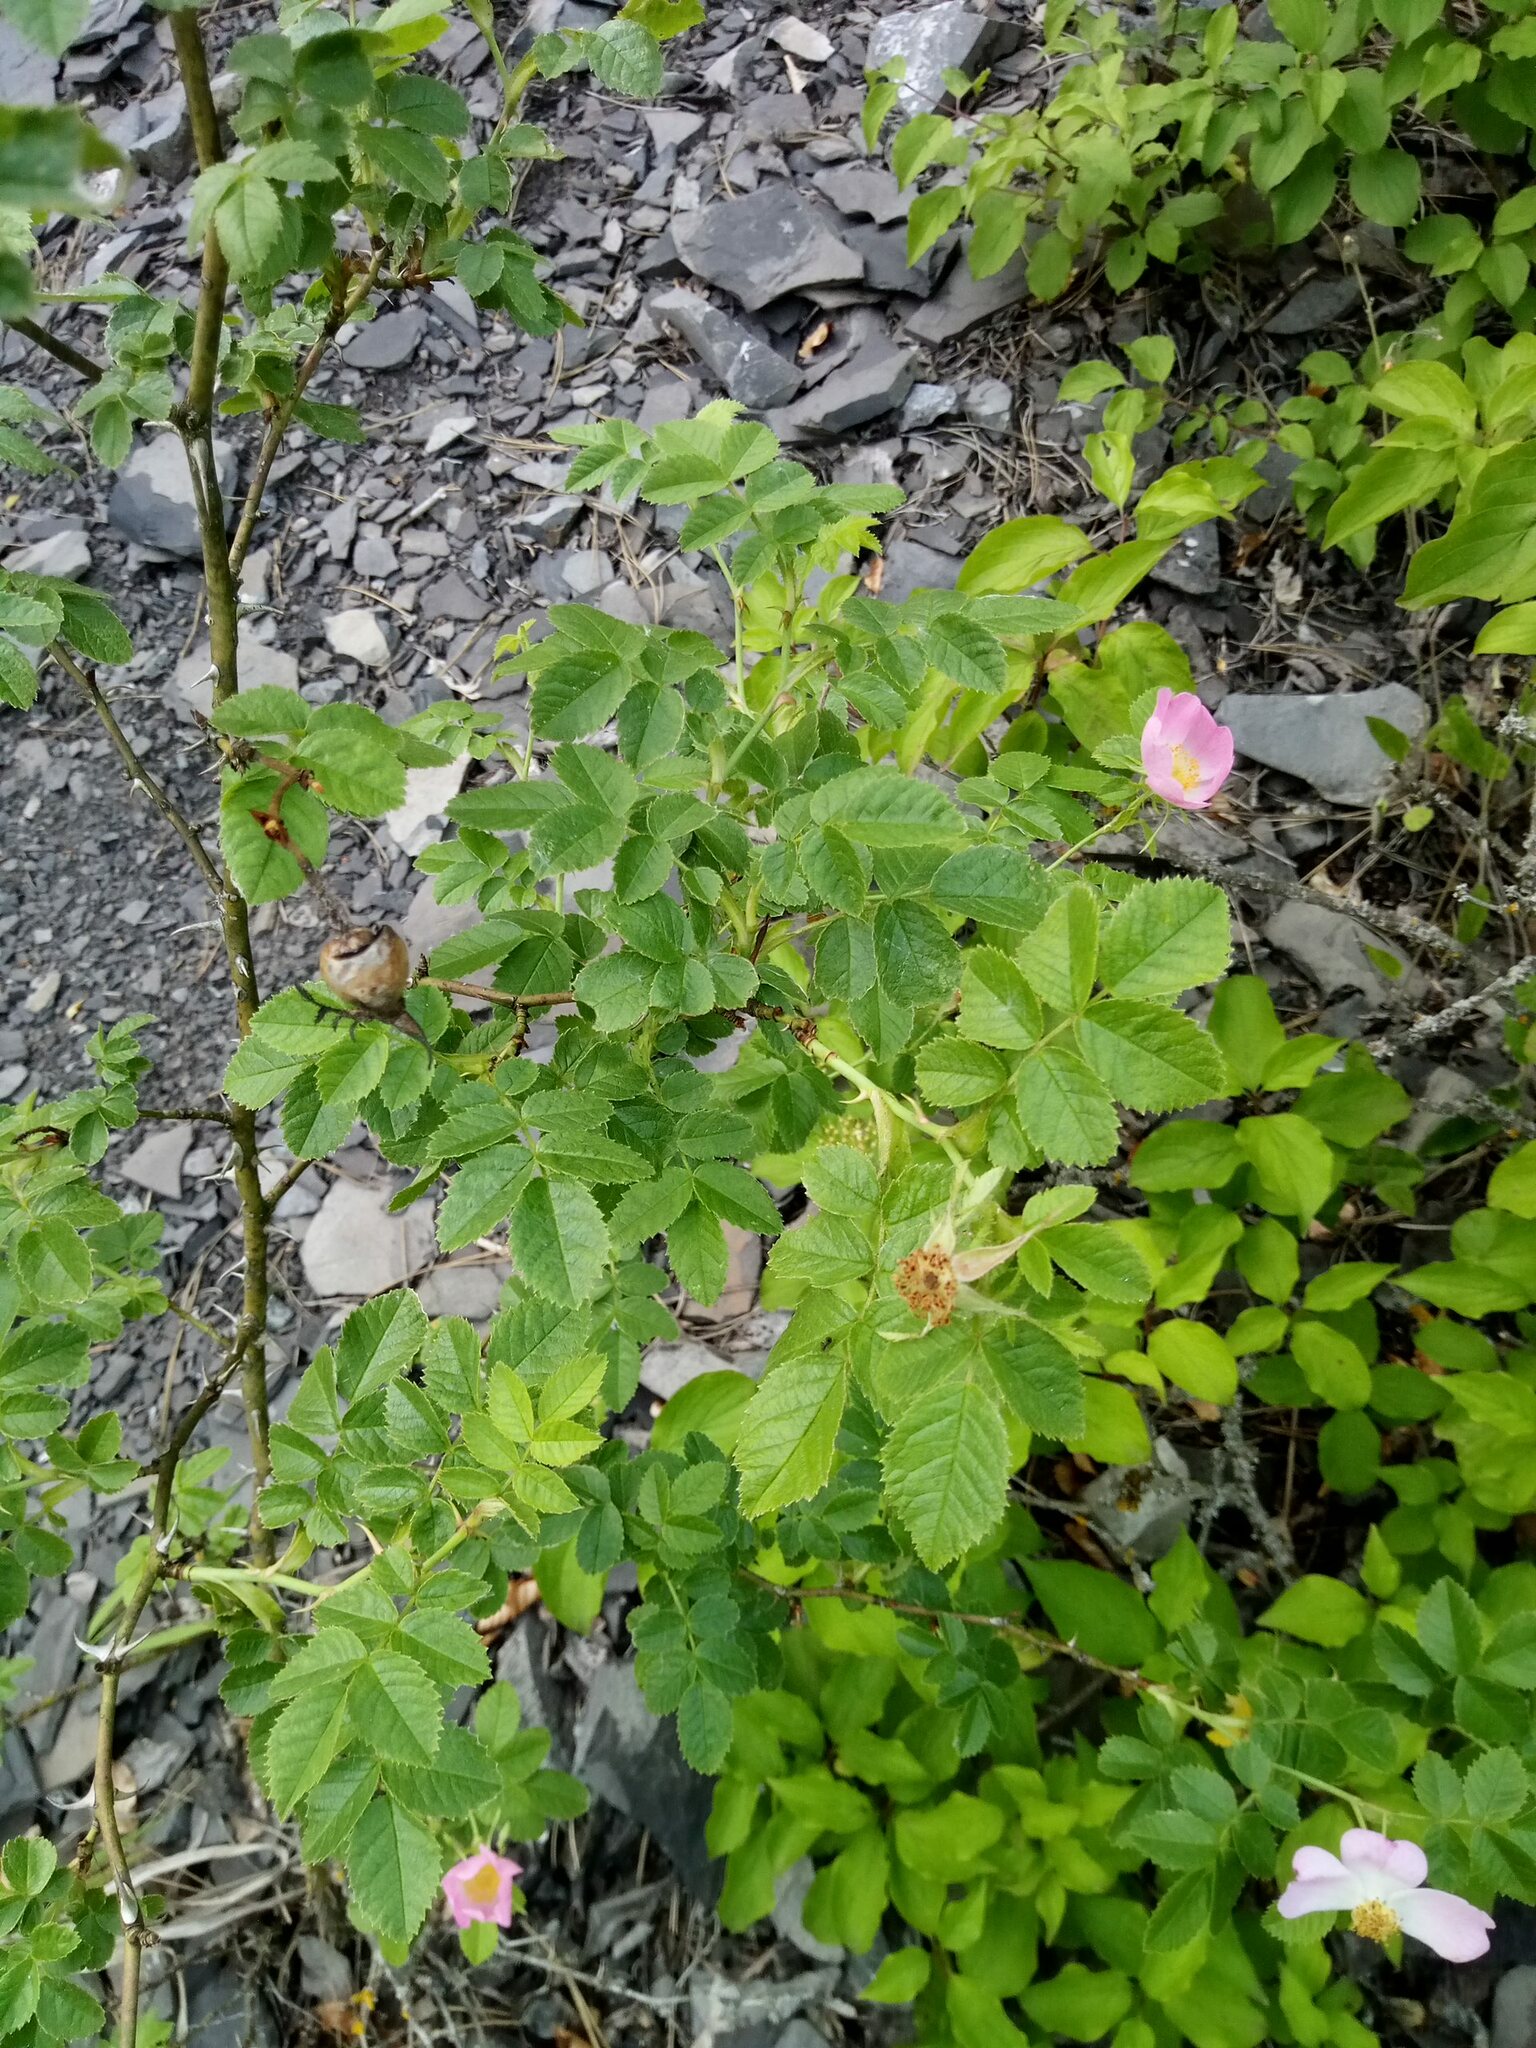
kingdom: Plantae
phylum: Tracheophyta
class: Magnoliopsida
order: Rosales
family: Rosaceae
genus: Rosa
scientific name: Rosa rubiginosa
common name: Sweet-briar
